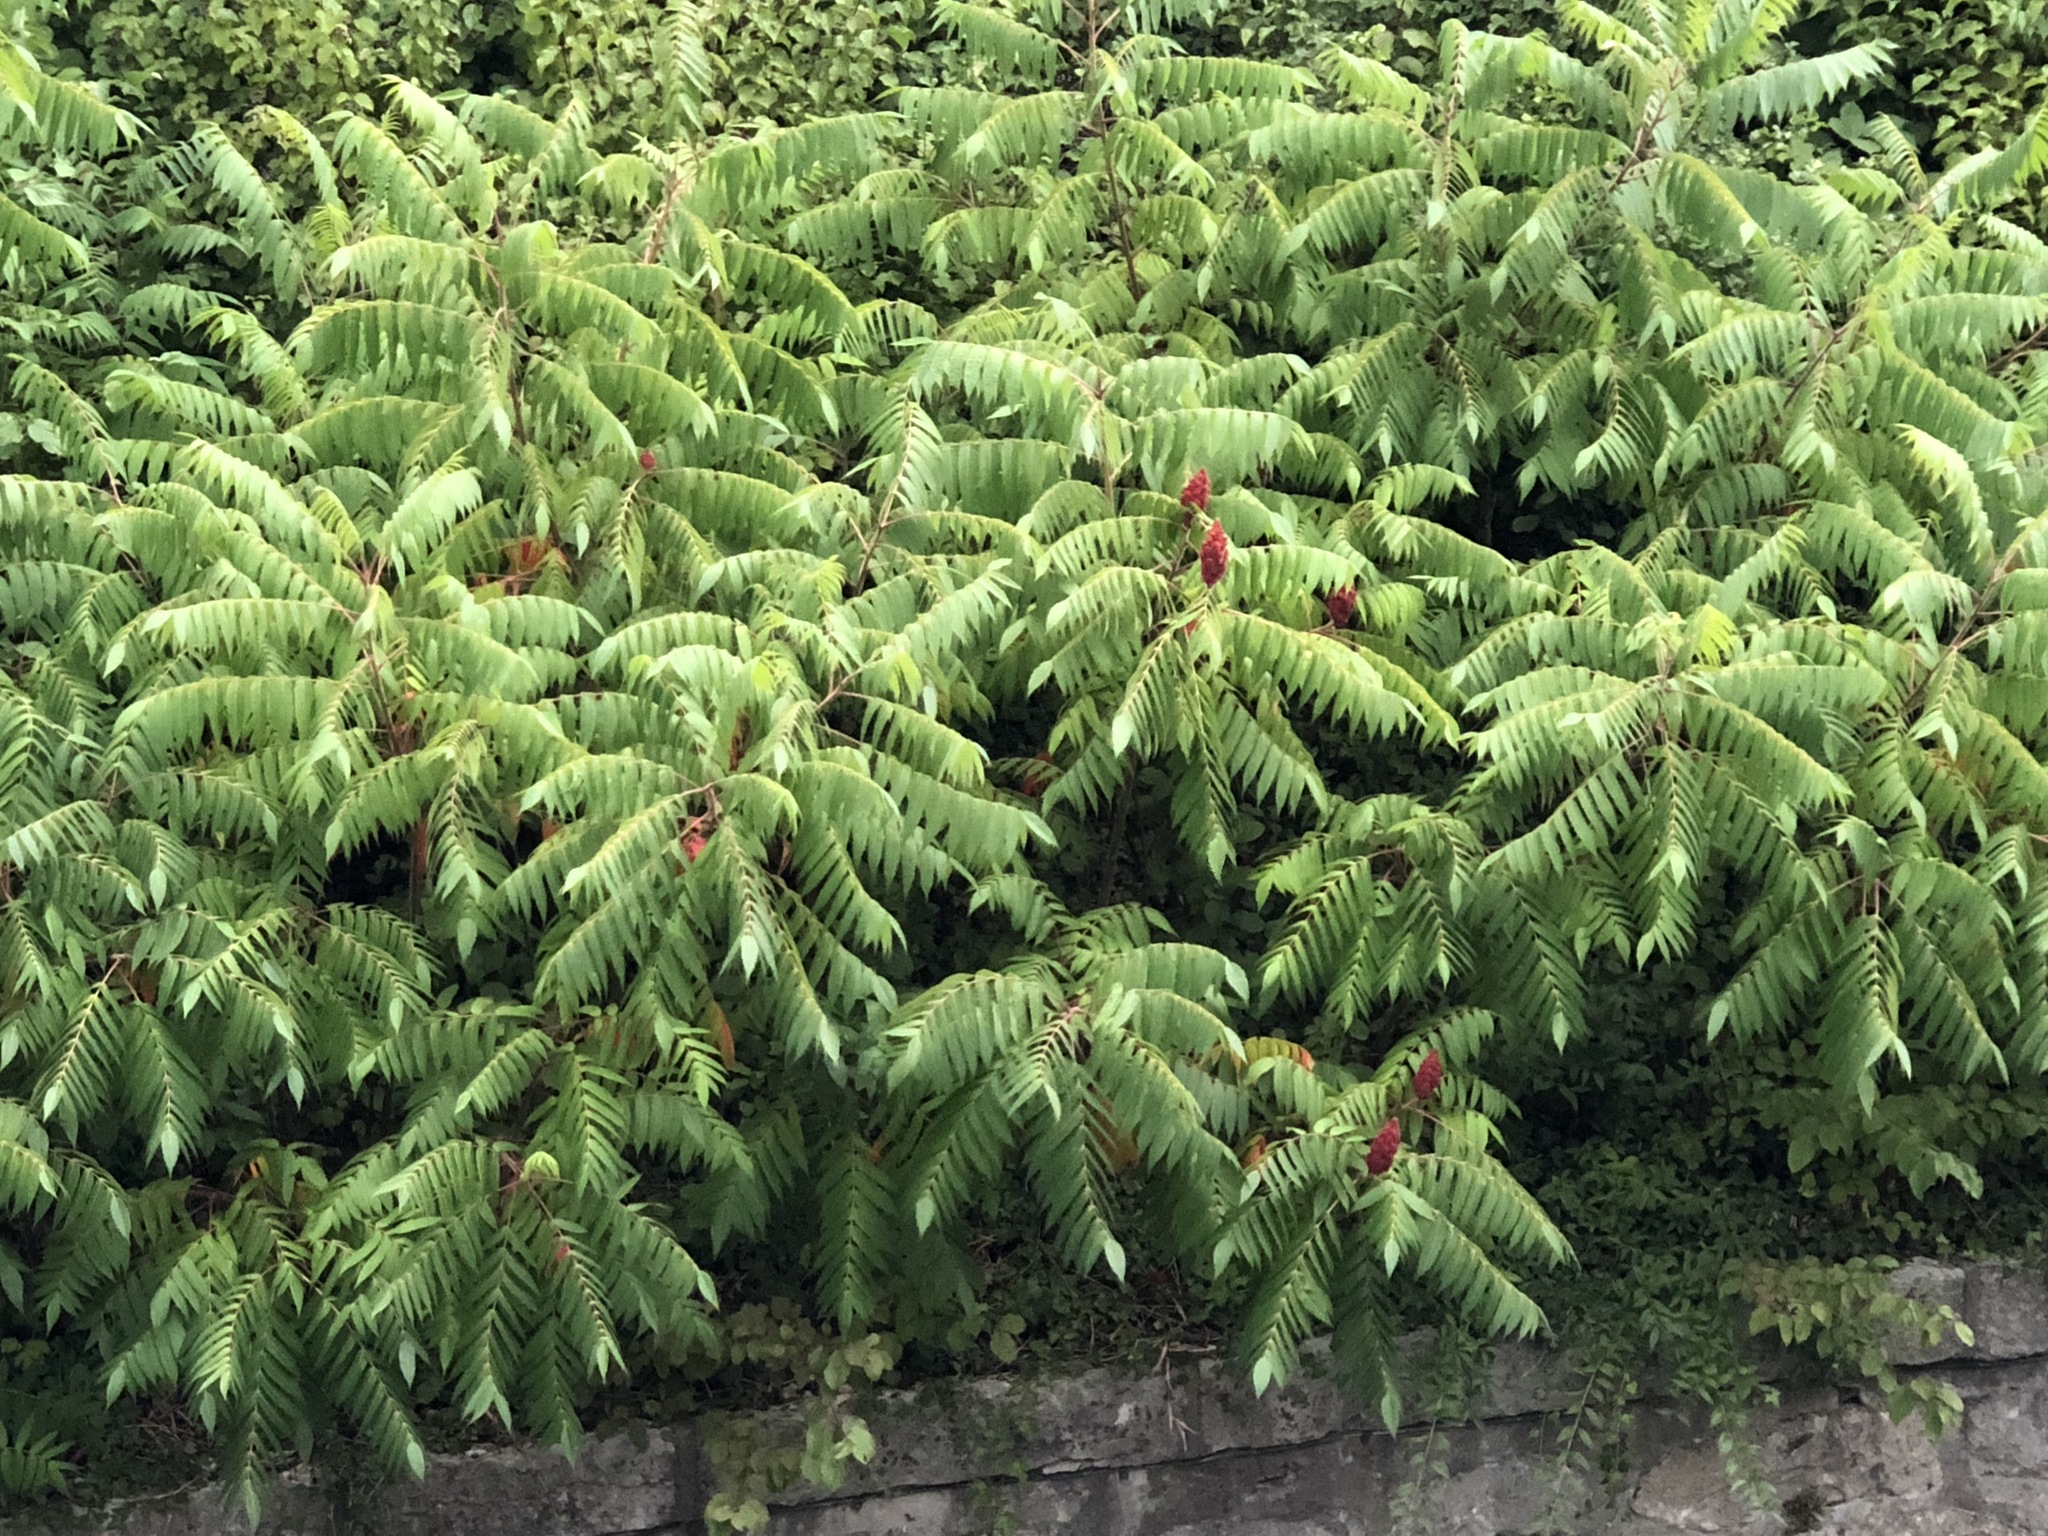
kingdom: Plantae
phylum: Tracheophyta
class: Magnoliopsida
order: Sapindales
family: Anacardiaceae
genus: Rhus
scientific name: Rhus typhina
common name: Staghorn sumac
